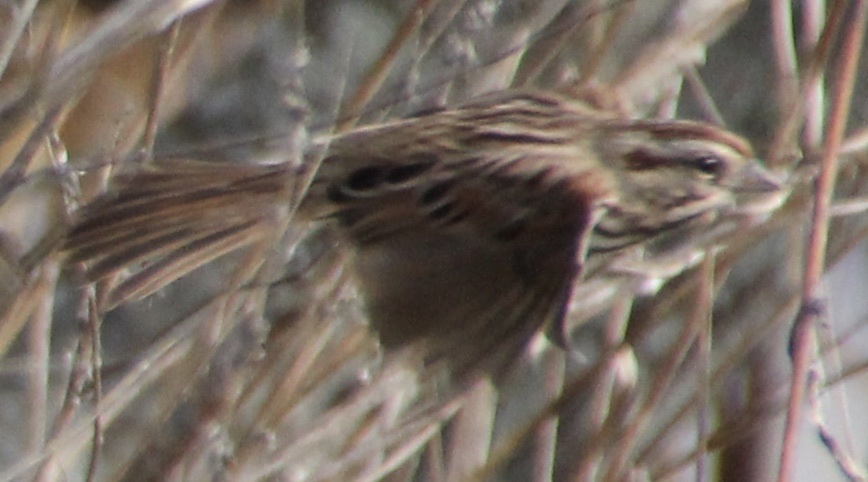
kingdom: Animalia
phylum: Chordata
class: Aves
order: Passeriformes
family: Passerellidae
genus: Melospiza
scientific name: Melospiza melodia
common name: Song sparrow
